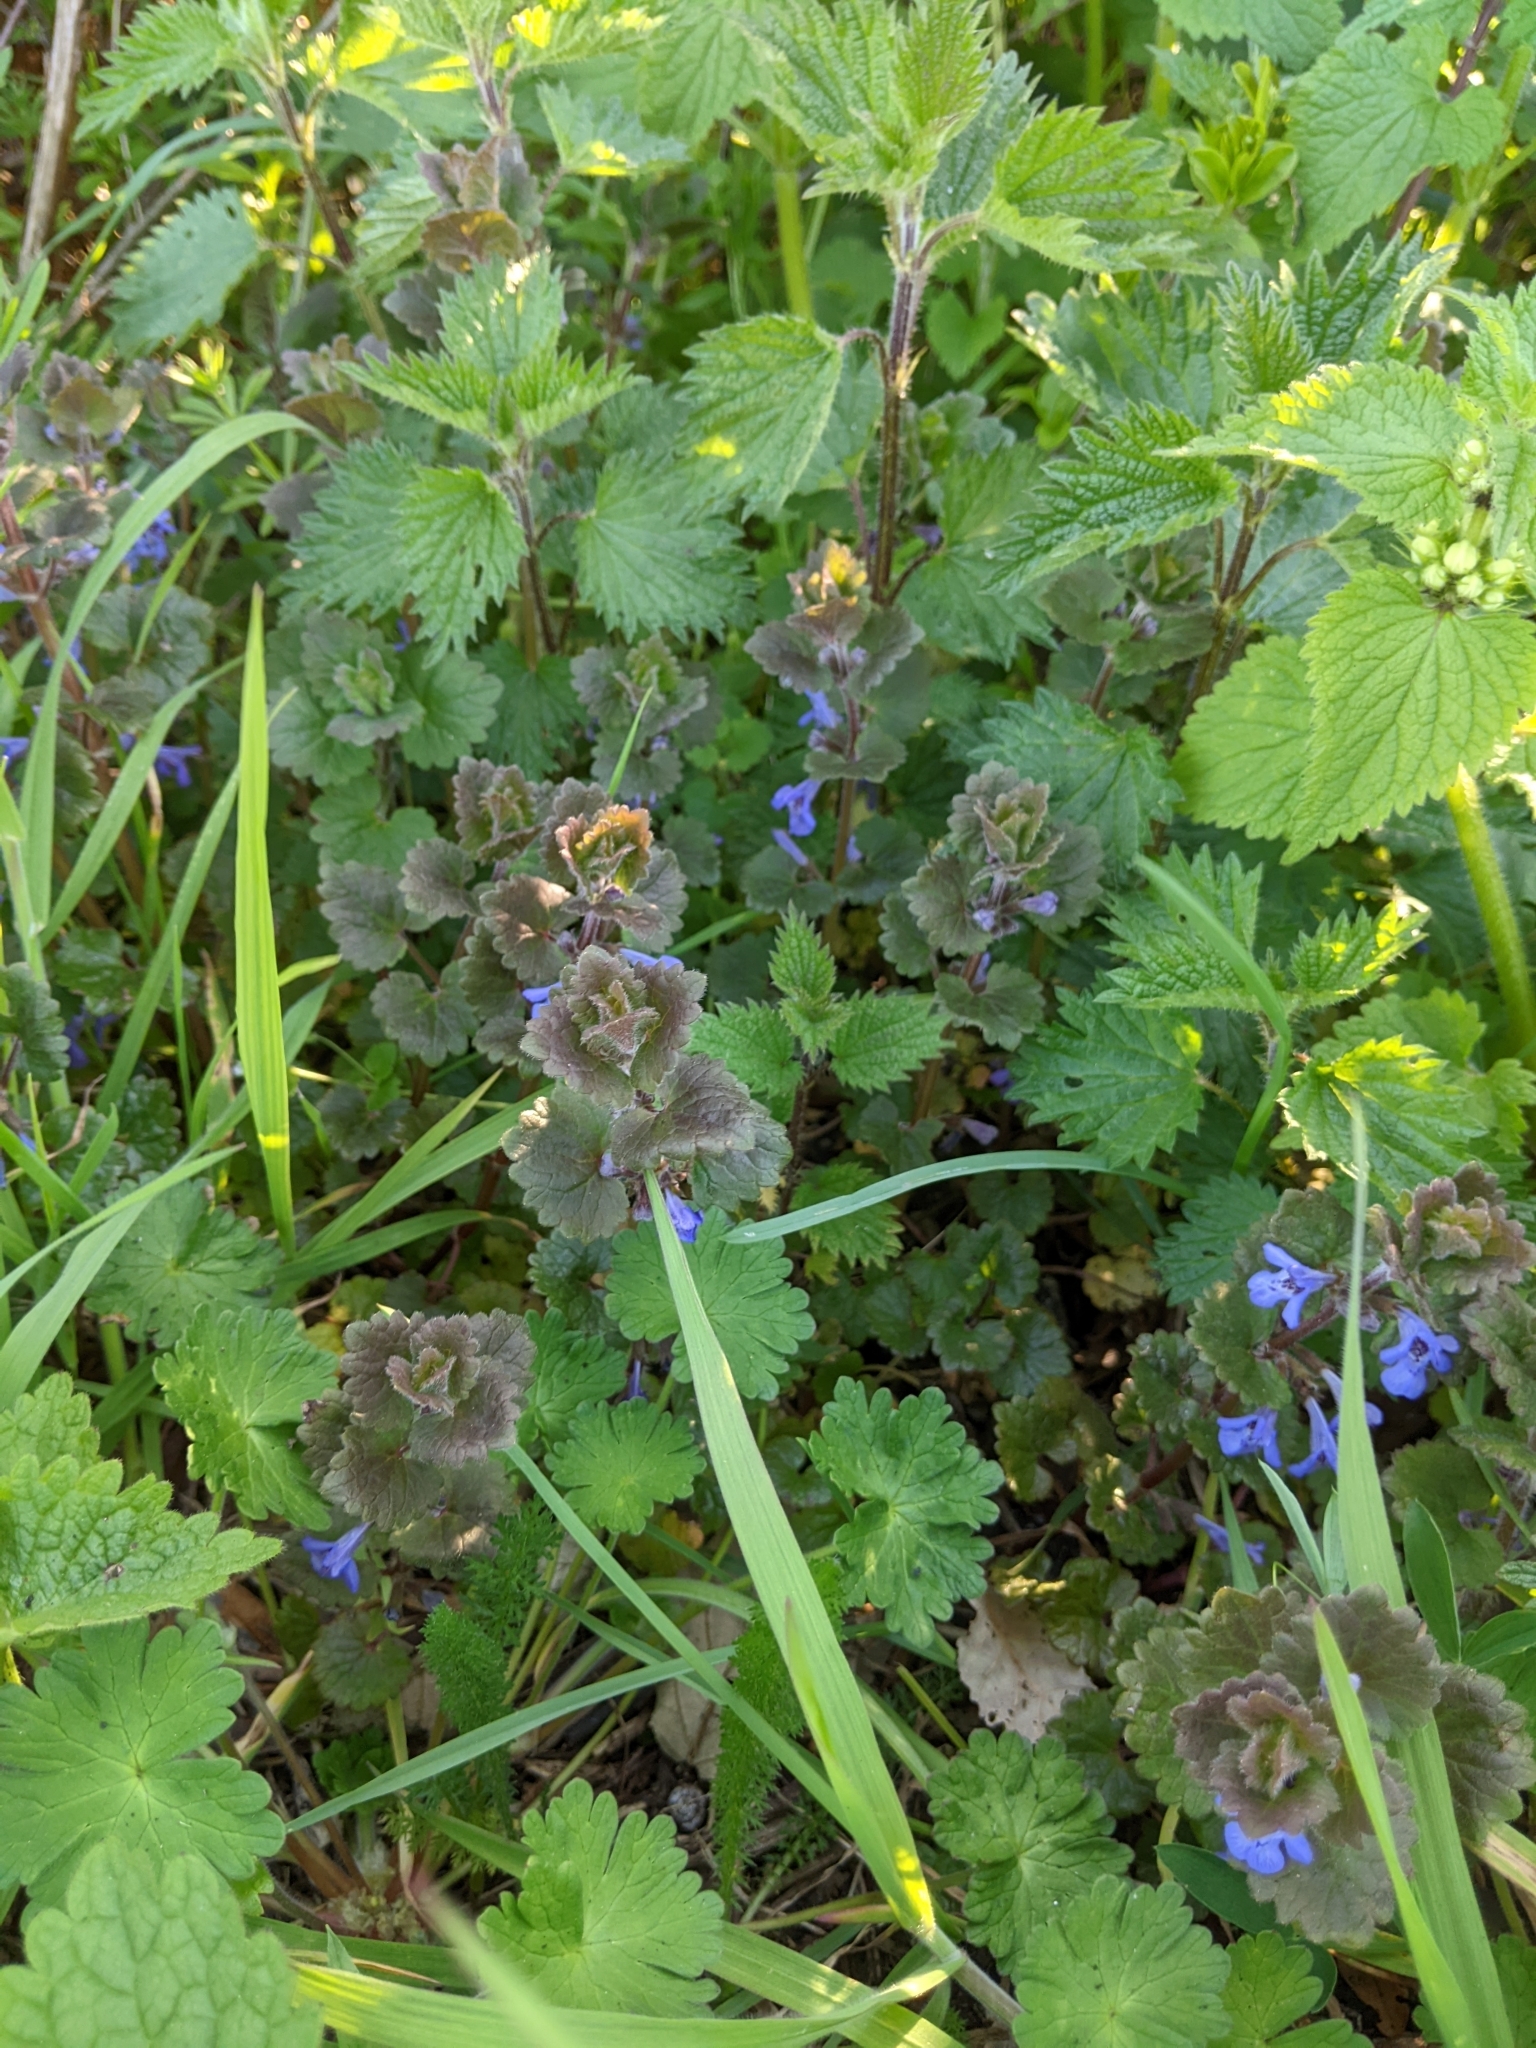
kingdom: Plantae
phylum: Tracheophyta
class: Magnoliopsida
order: Lamiales
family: Lamiaceae
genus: Glechoma
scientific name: Glechoma hederacea
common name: Ground ivy
